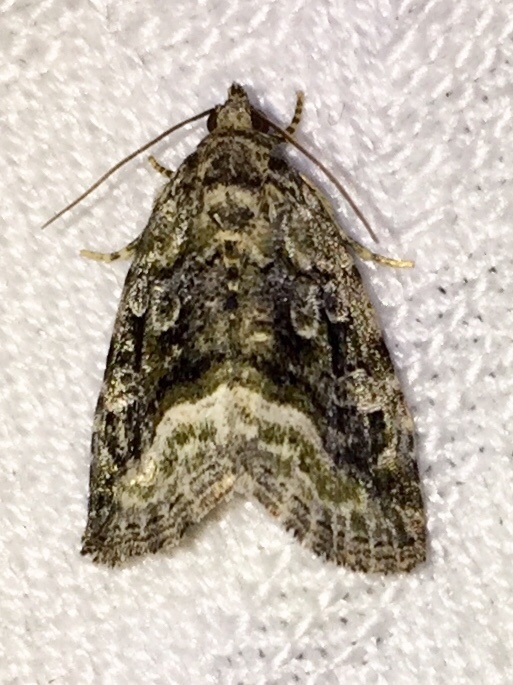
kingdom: Animalia
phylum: Arthropoda
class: Insecta
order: Lepidoptera
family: Noctuidae
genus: Protodeltote
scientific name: Protodeltote muscosula
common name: Large mossy glyph
